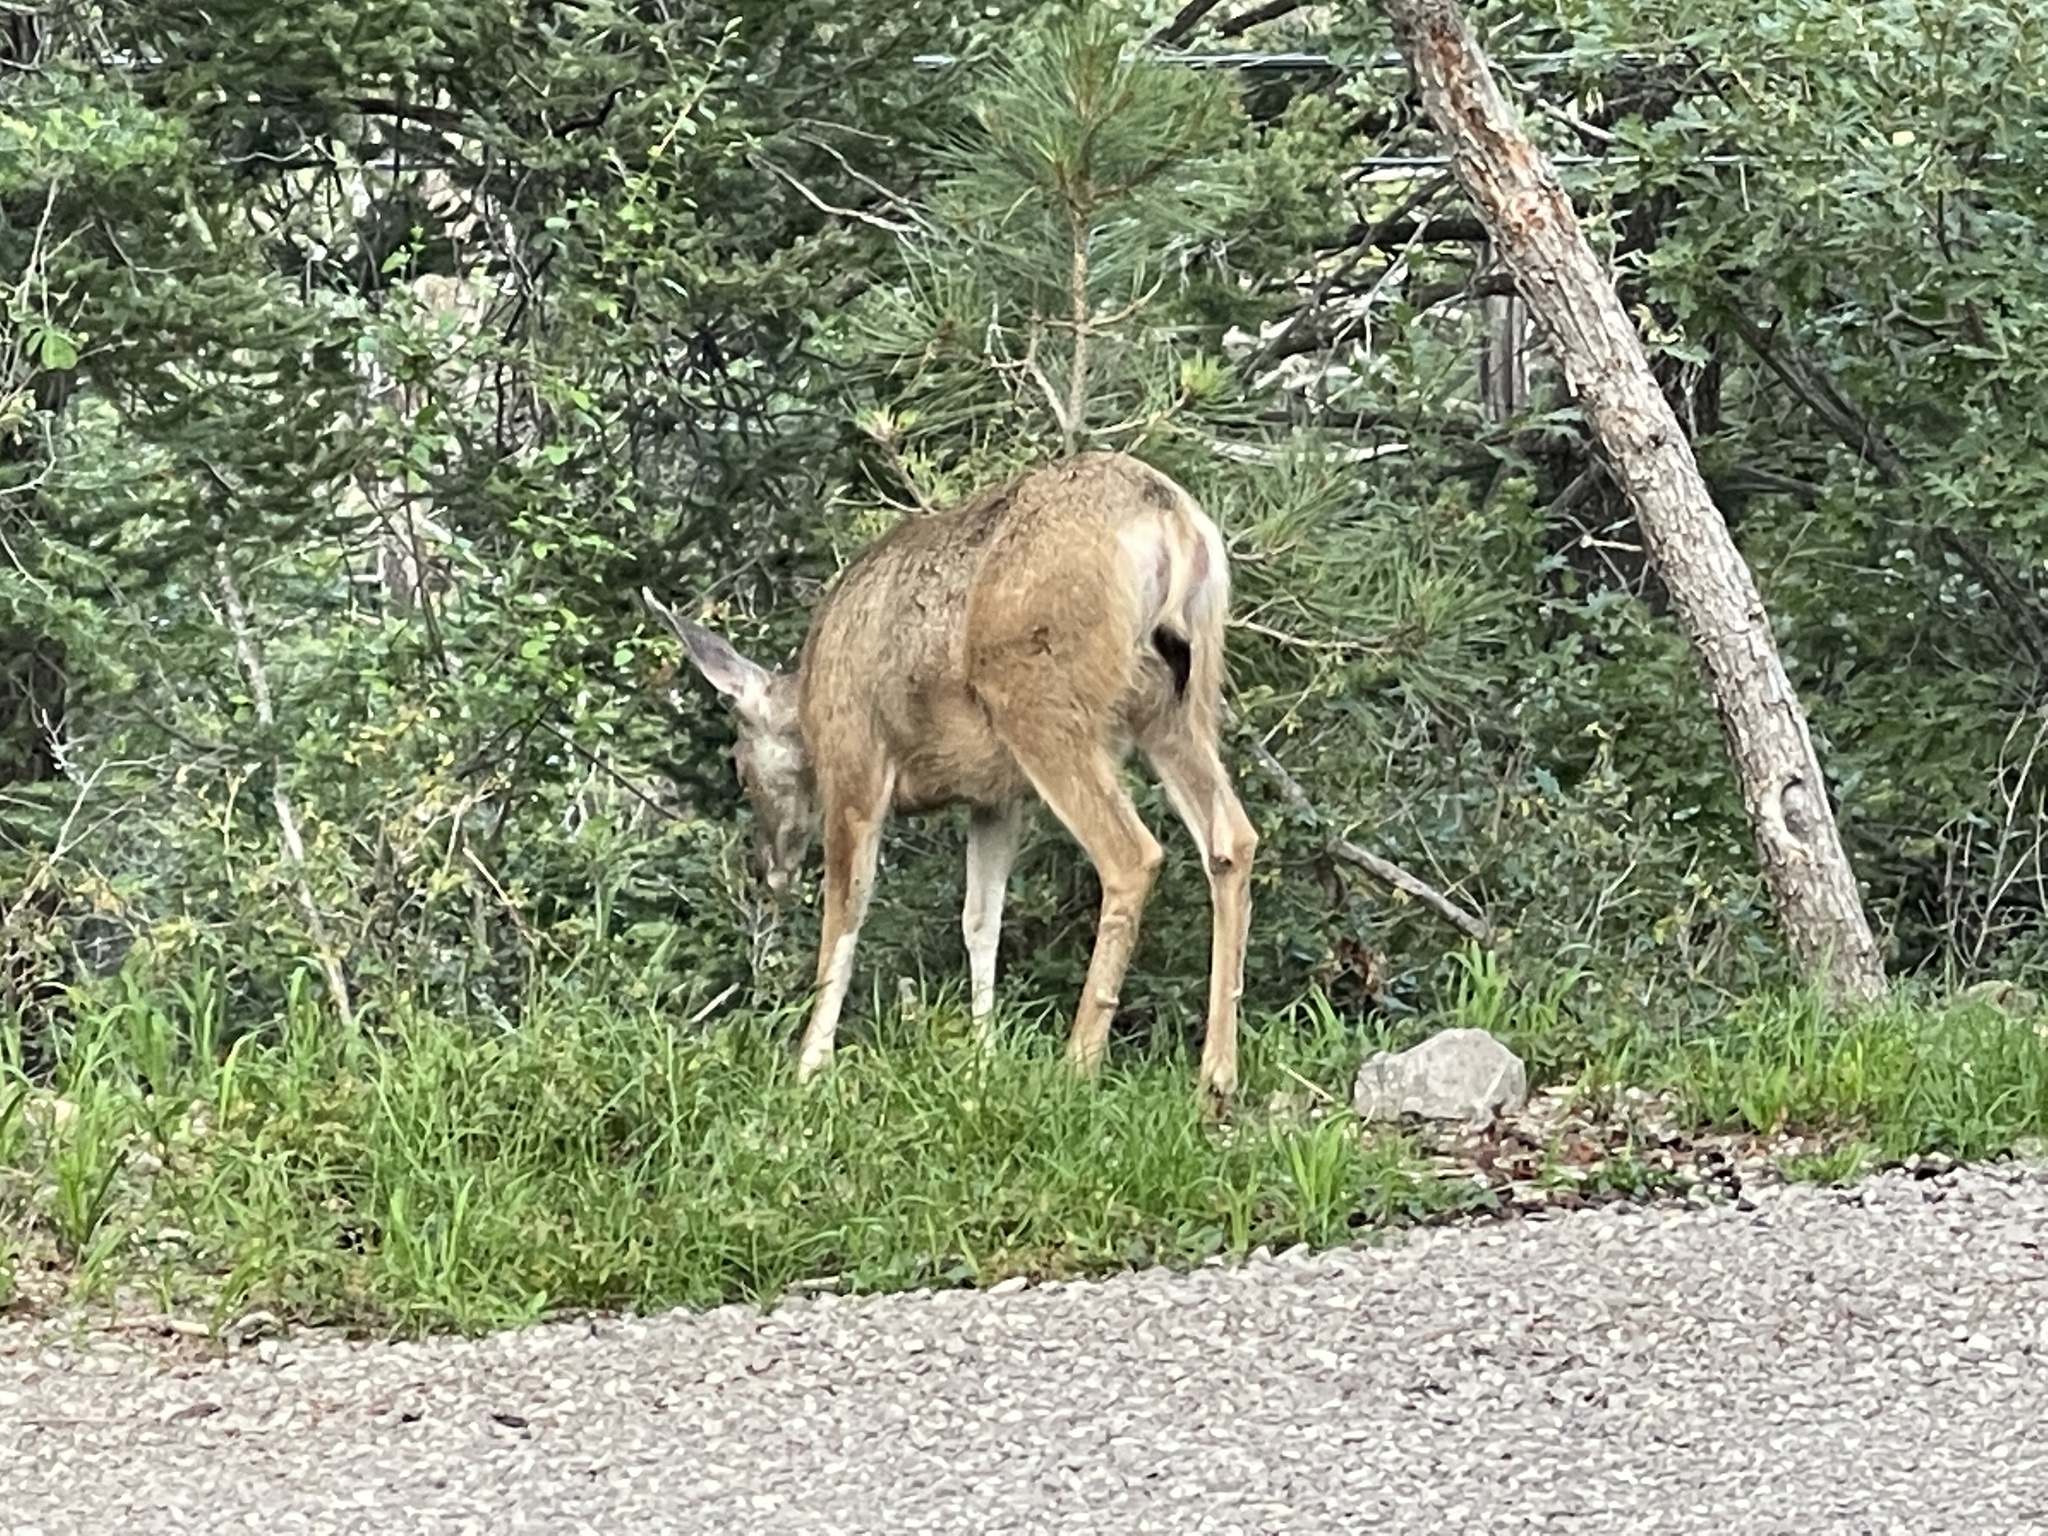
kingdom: Animalia
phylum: Chordata
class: Mammalia
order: Artiodactyla
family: Cervidae
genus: Odocoileus
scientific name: Odocoileus hemionus
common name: Mule deer
